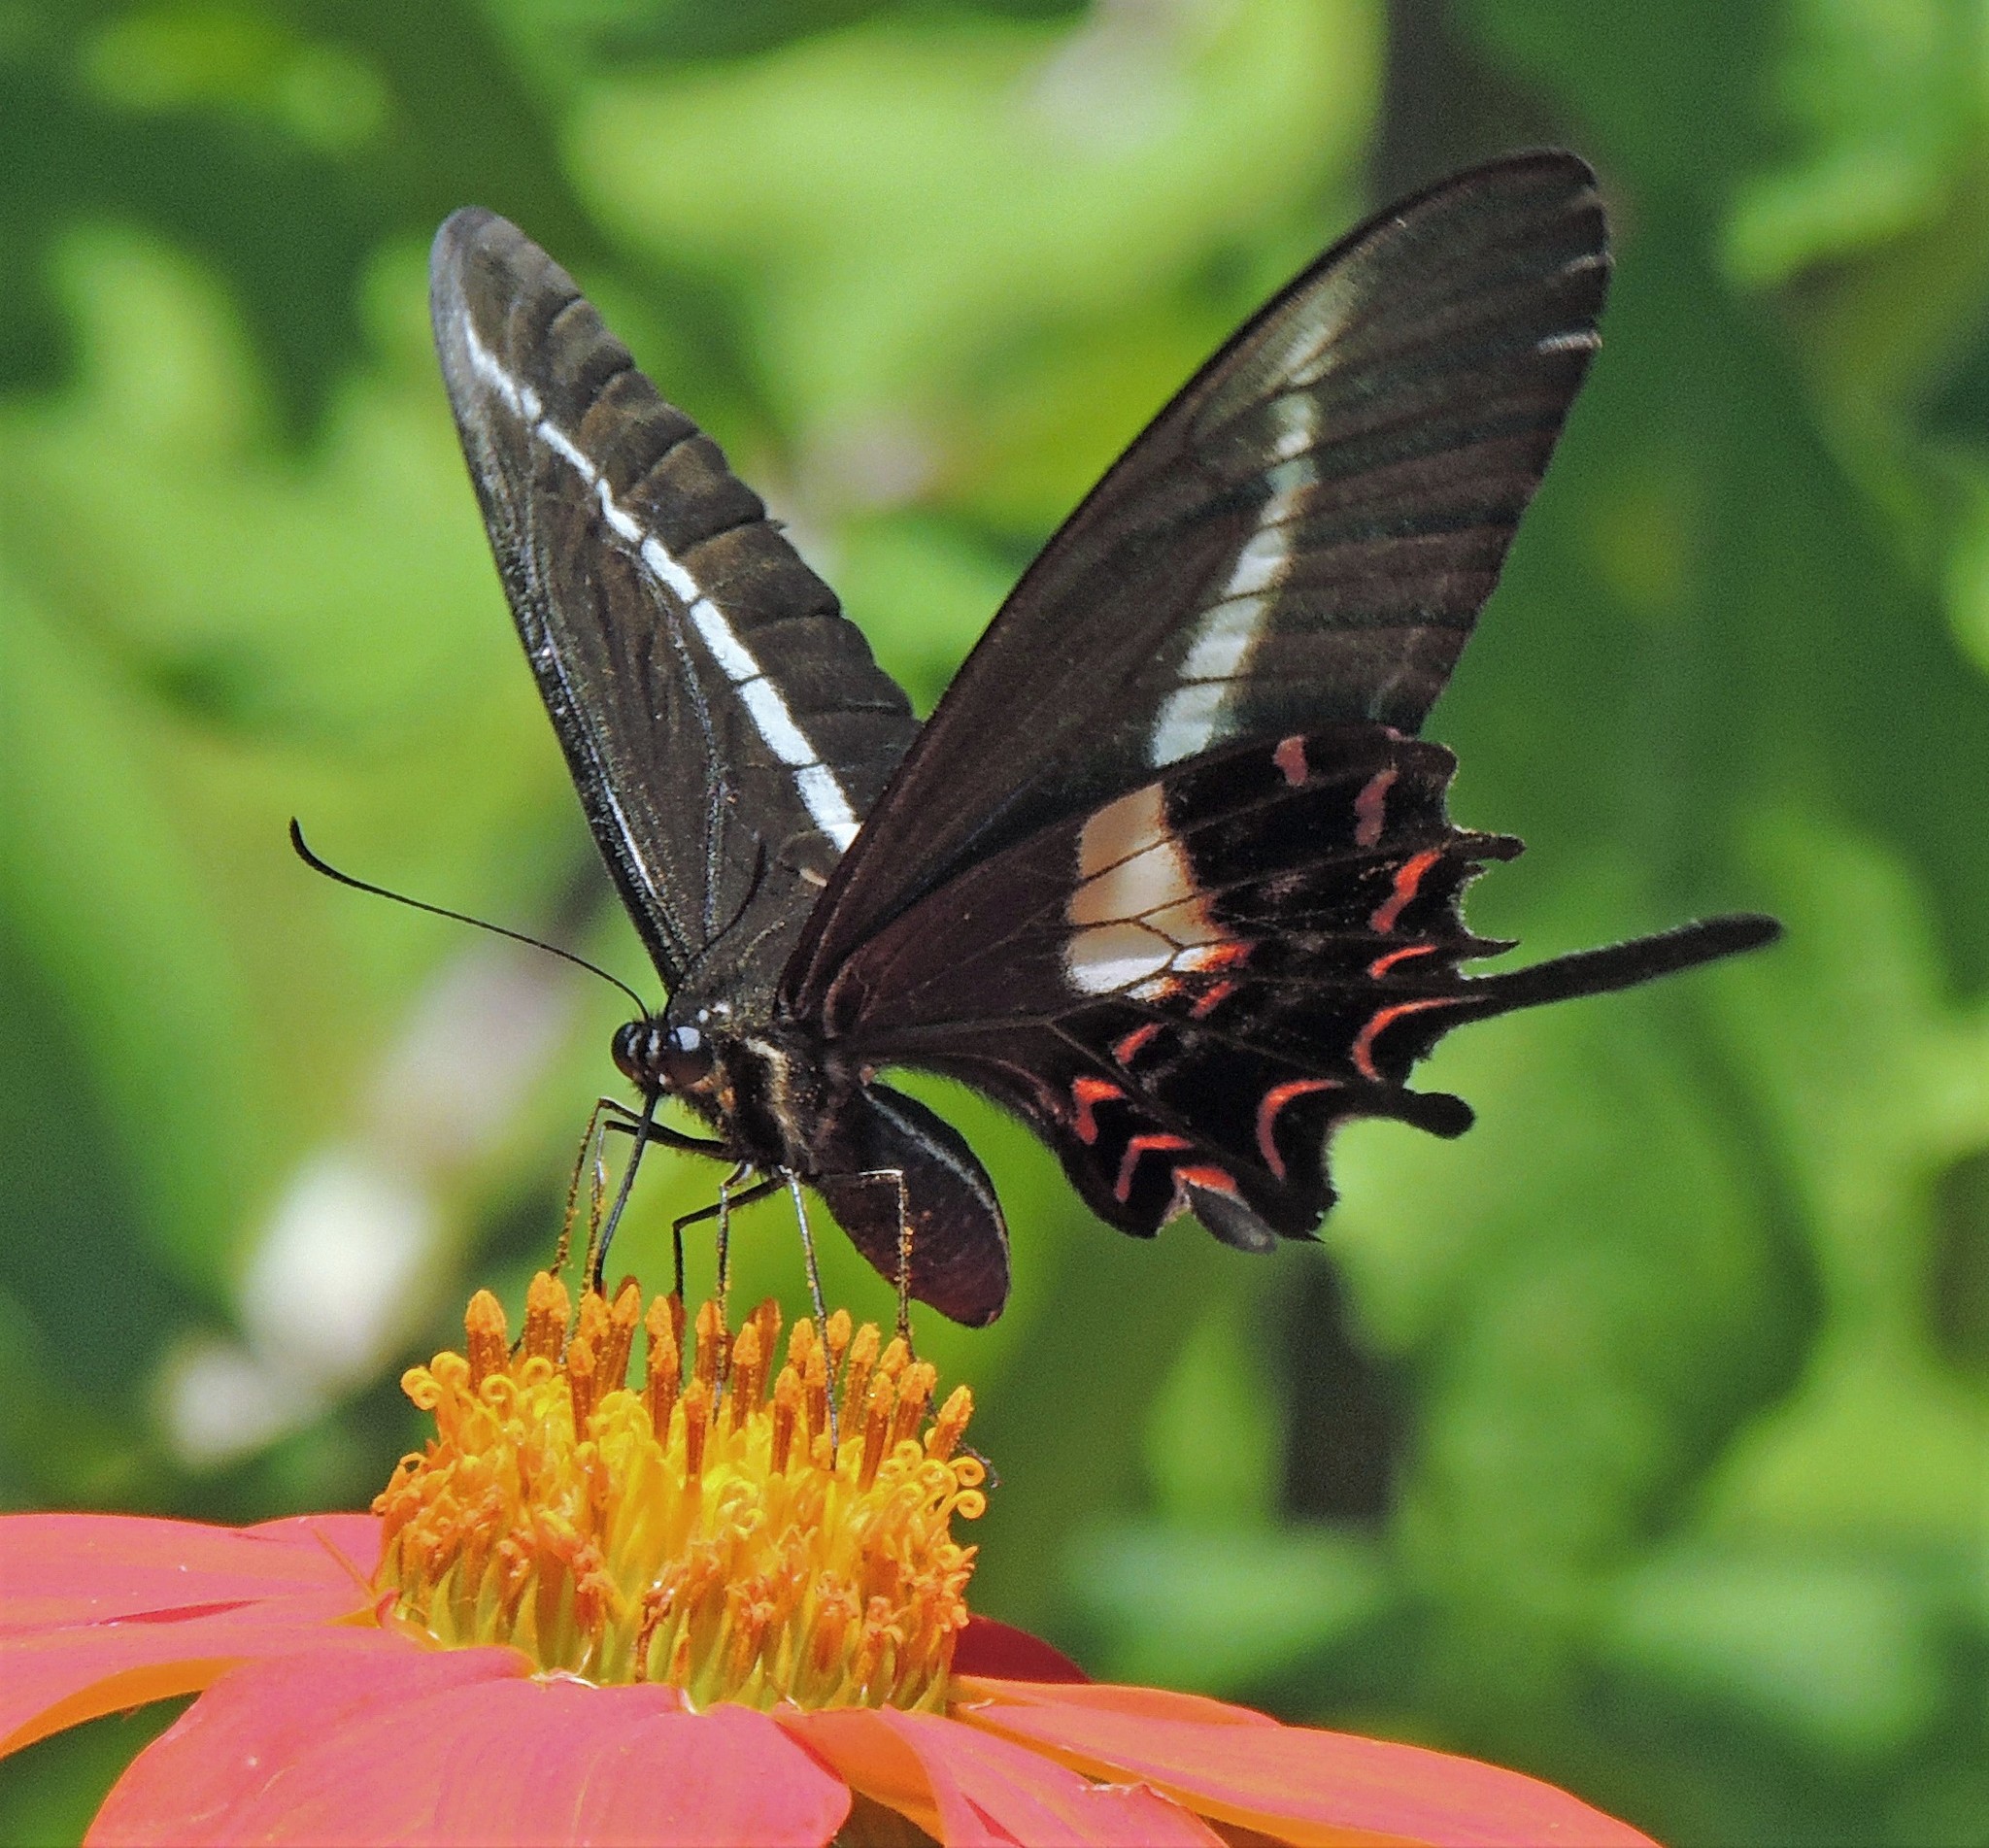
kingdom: Animalia
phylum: Arthropoda
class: Insecta
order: Lepidoptera
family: Papilionidae
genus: Heraclides
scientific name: Heraclides hectorides
